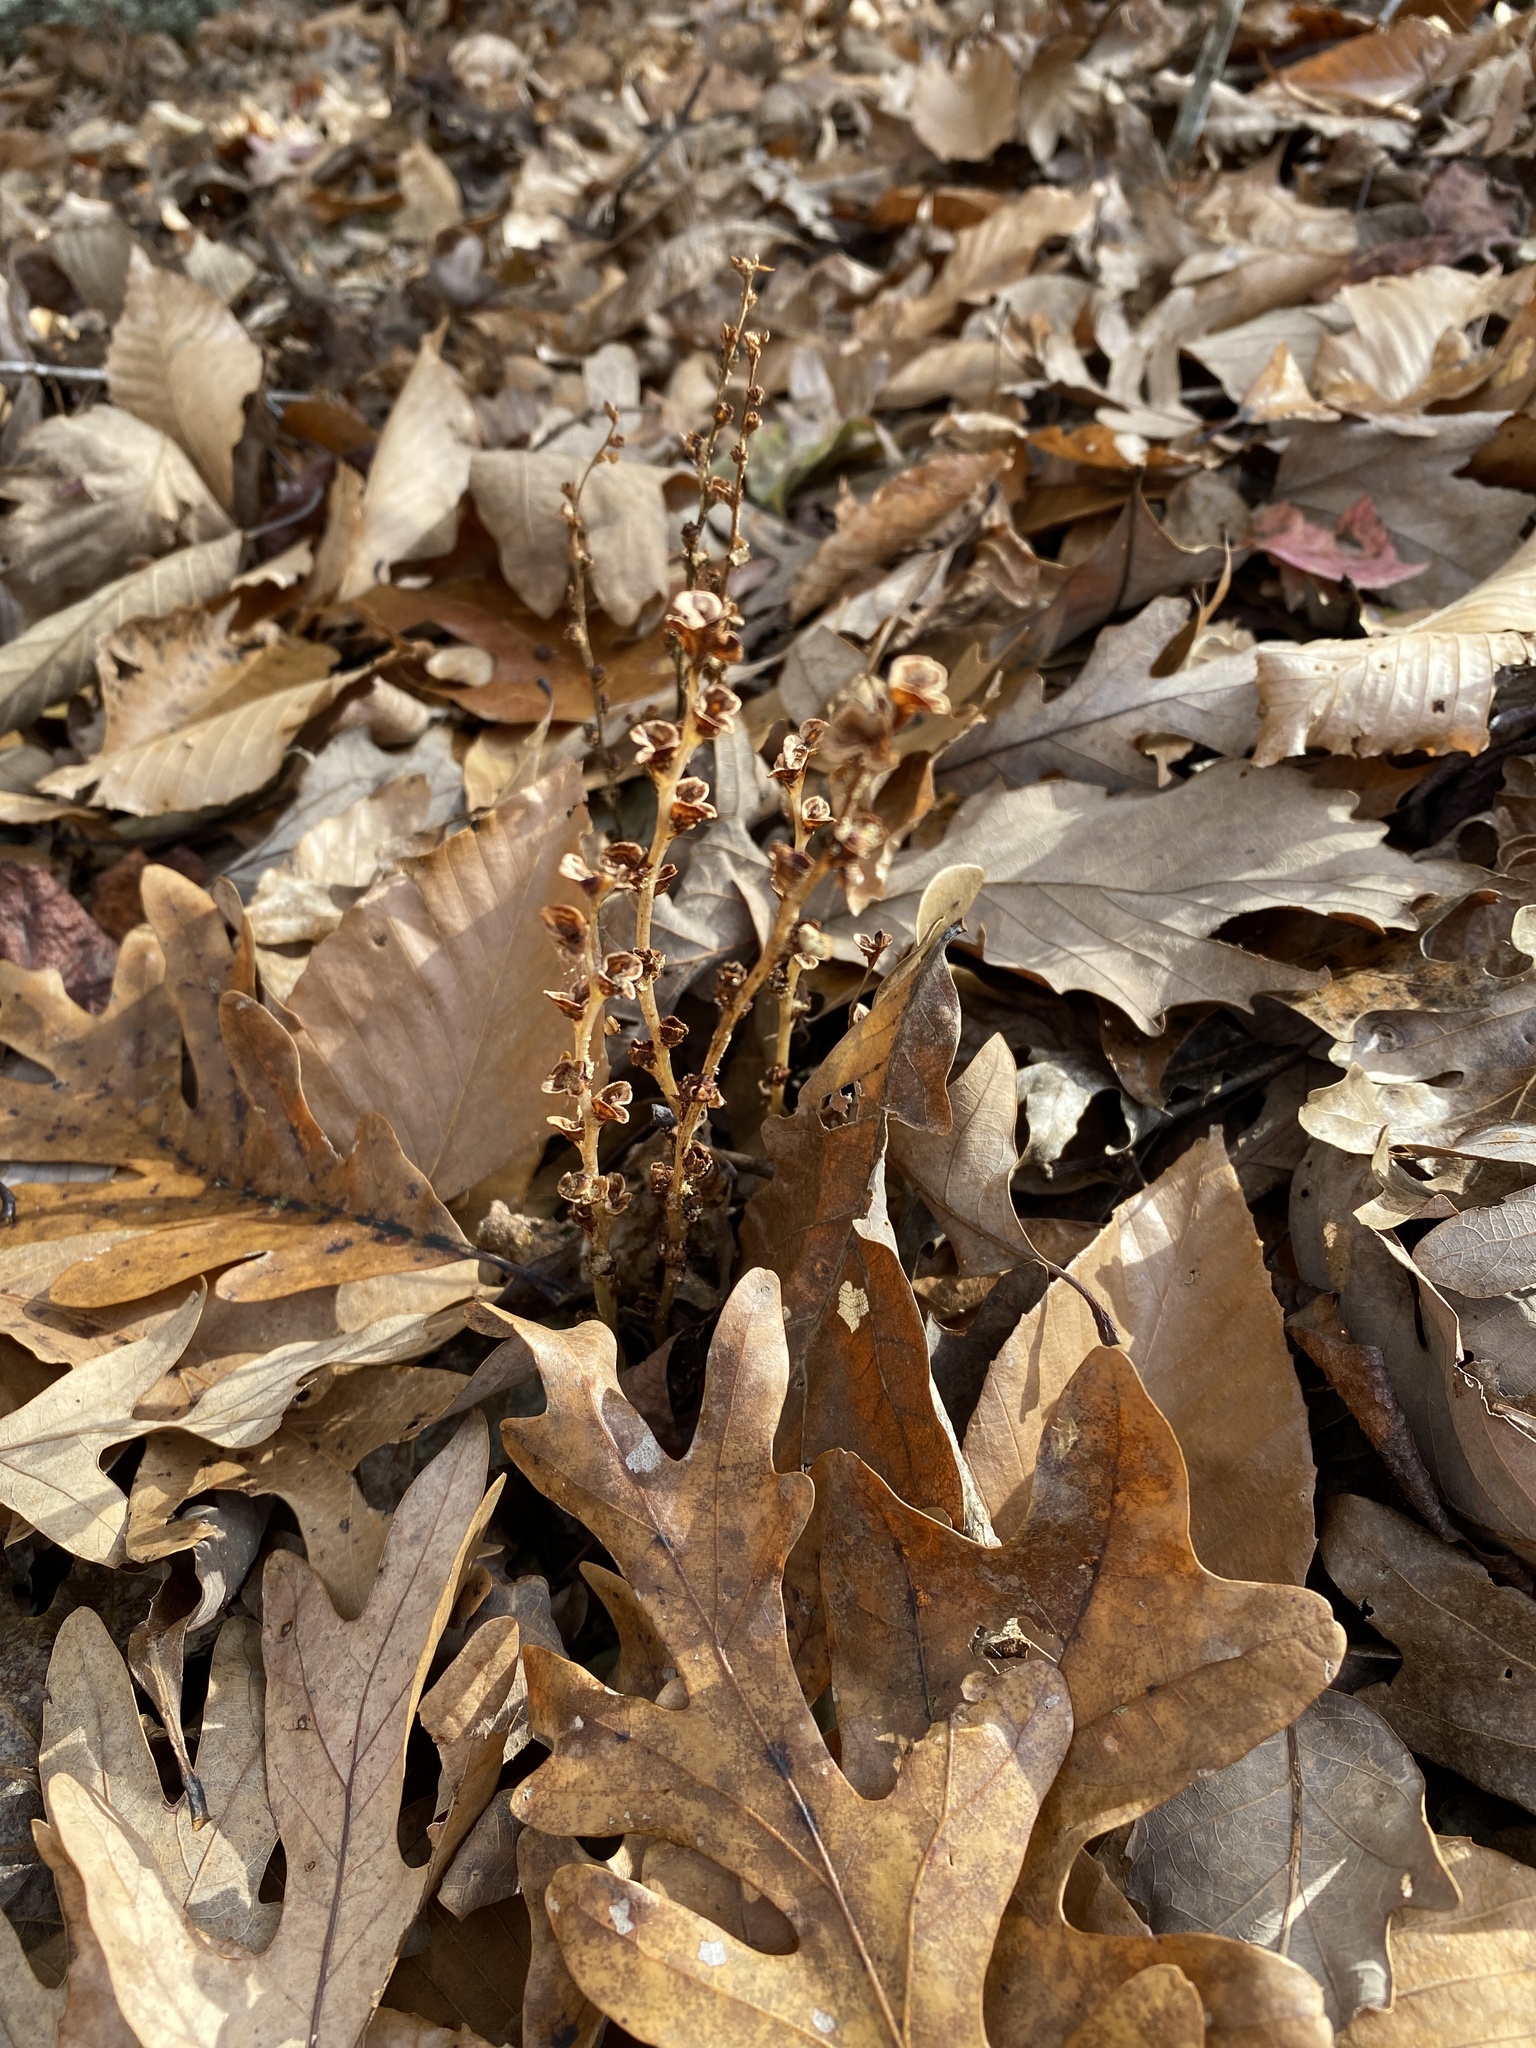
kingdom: Plantae
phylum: Tracheophyta
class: Magnoliopsida
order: Lamiales
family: Orobanchaceae
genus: Epifagus
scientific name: Epifagus virginiana
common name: Beechdrops
